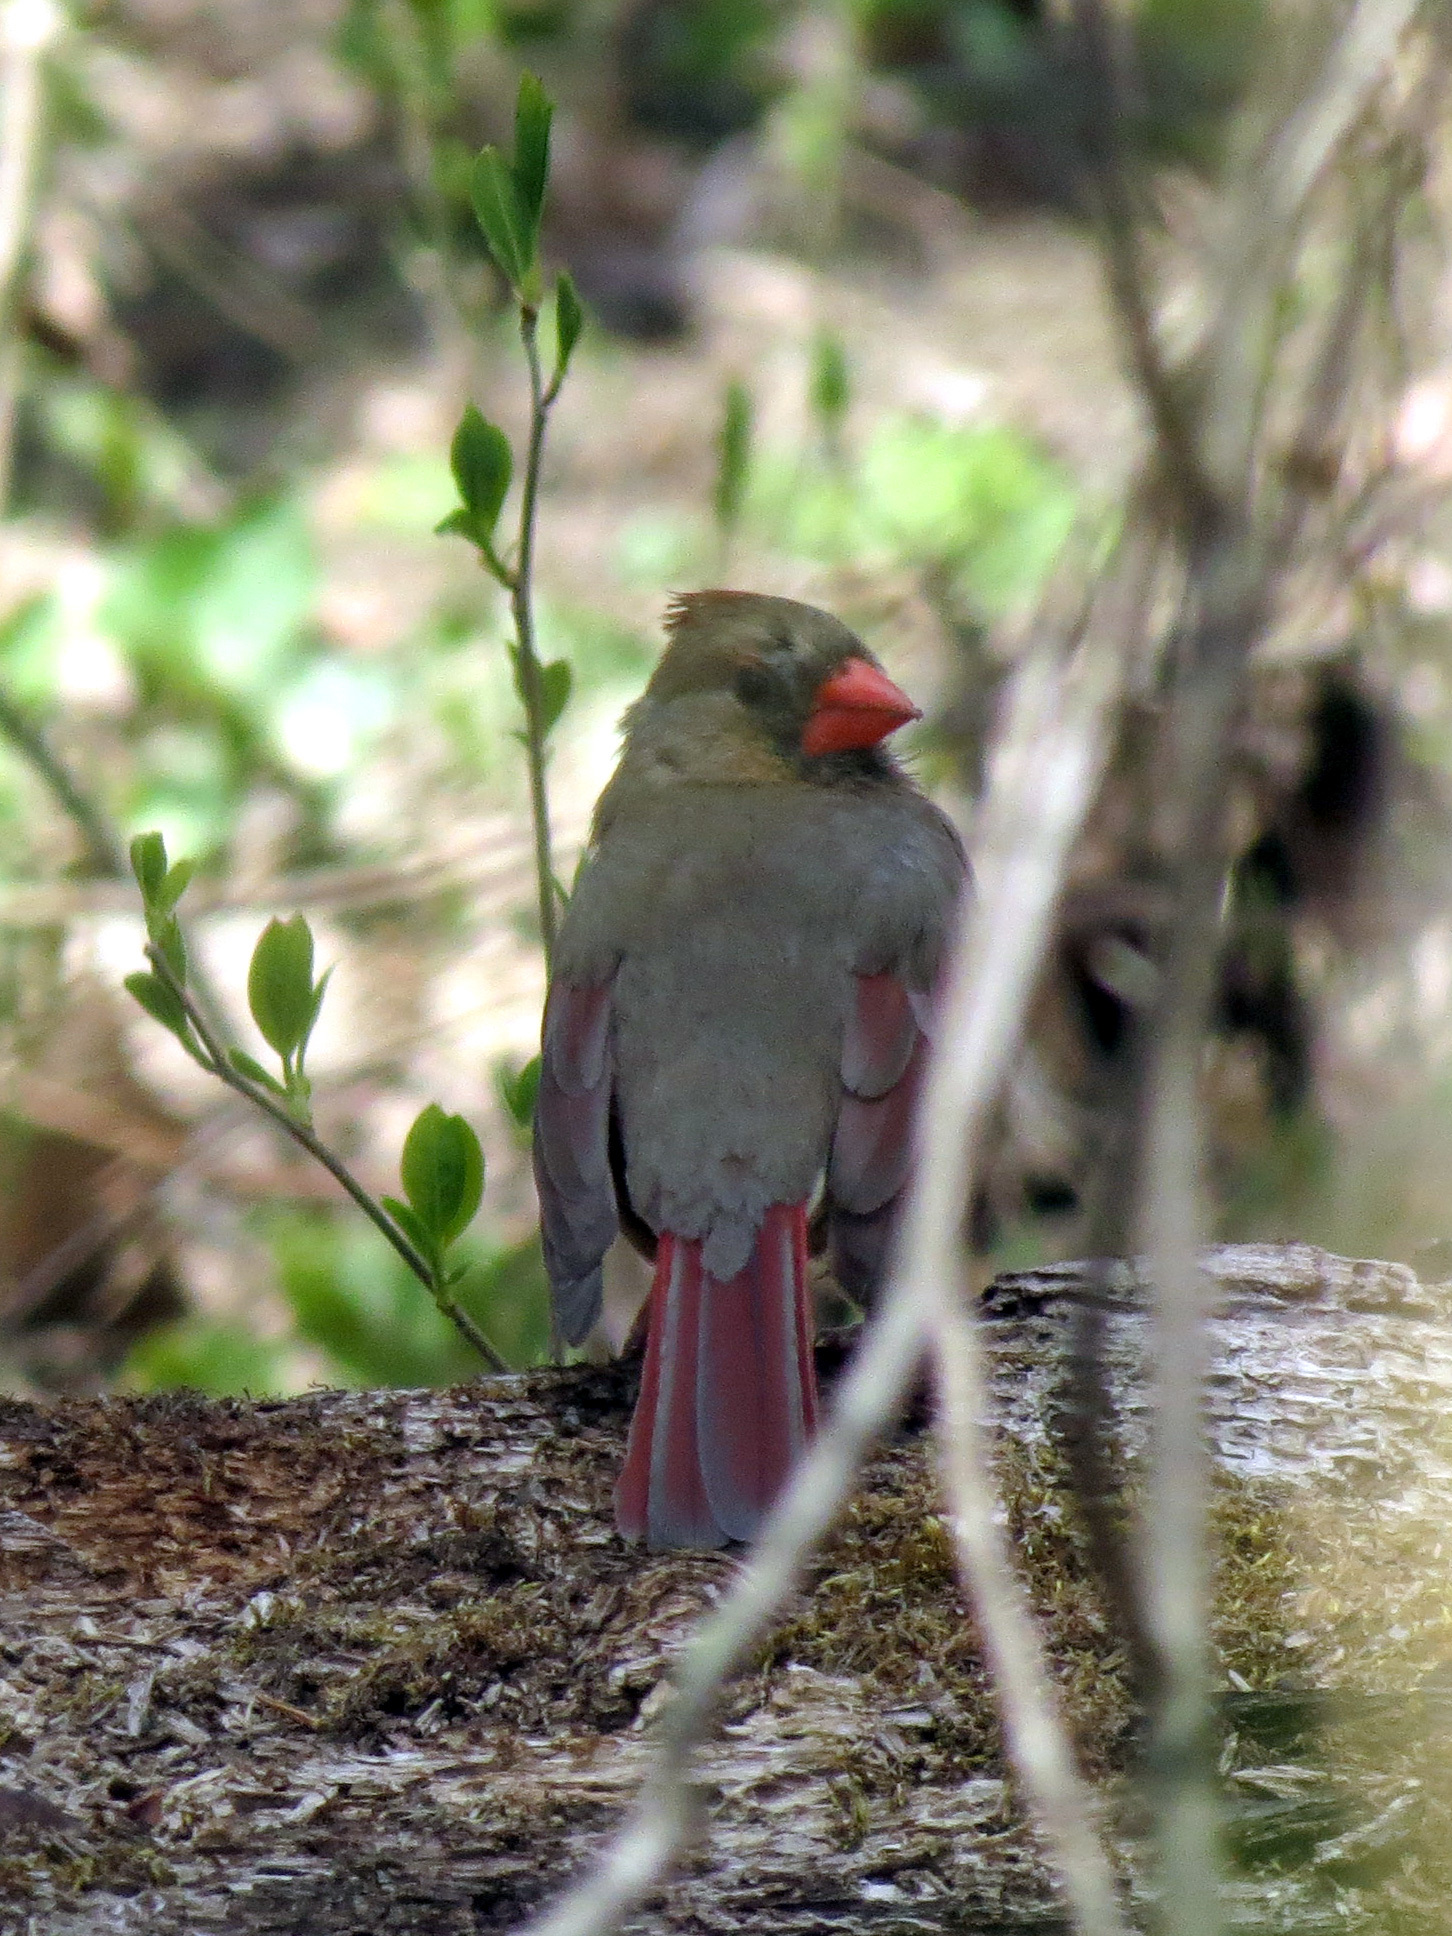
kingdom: Animalia
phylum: Chordata
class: Aves
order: Passeriformes
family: Cardinalidae
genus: Cardinalis
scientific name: Cardinalis cardinalis
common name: Northern cardinal
